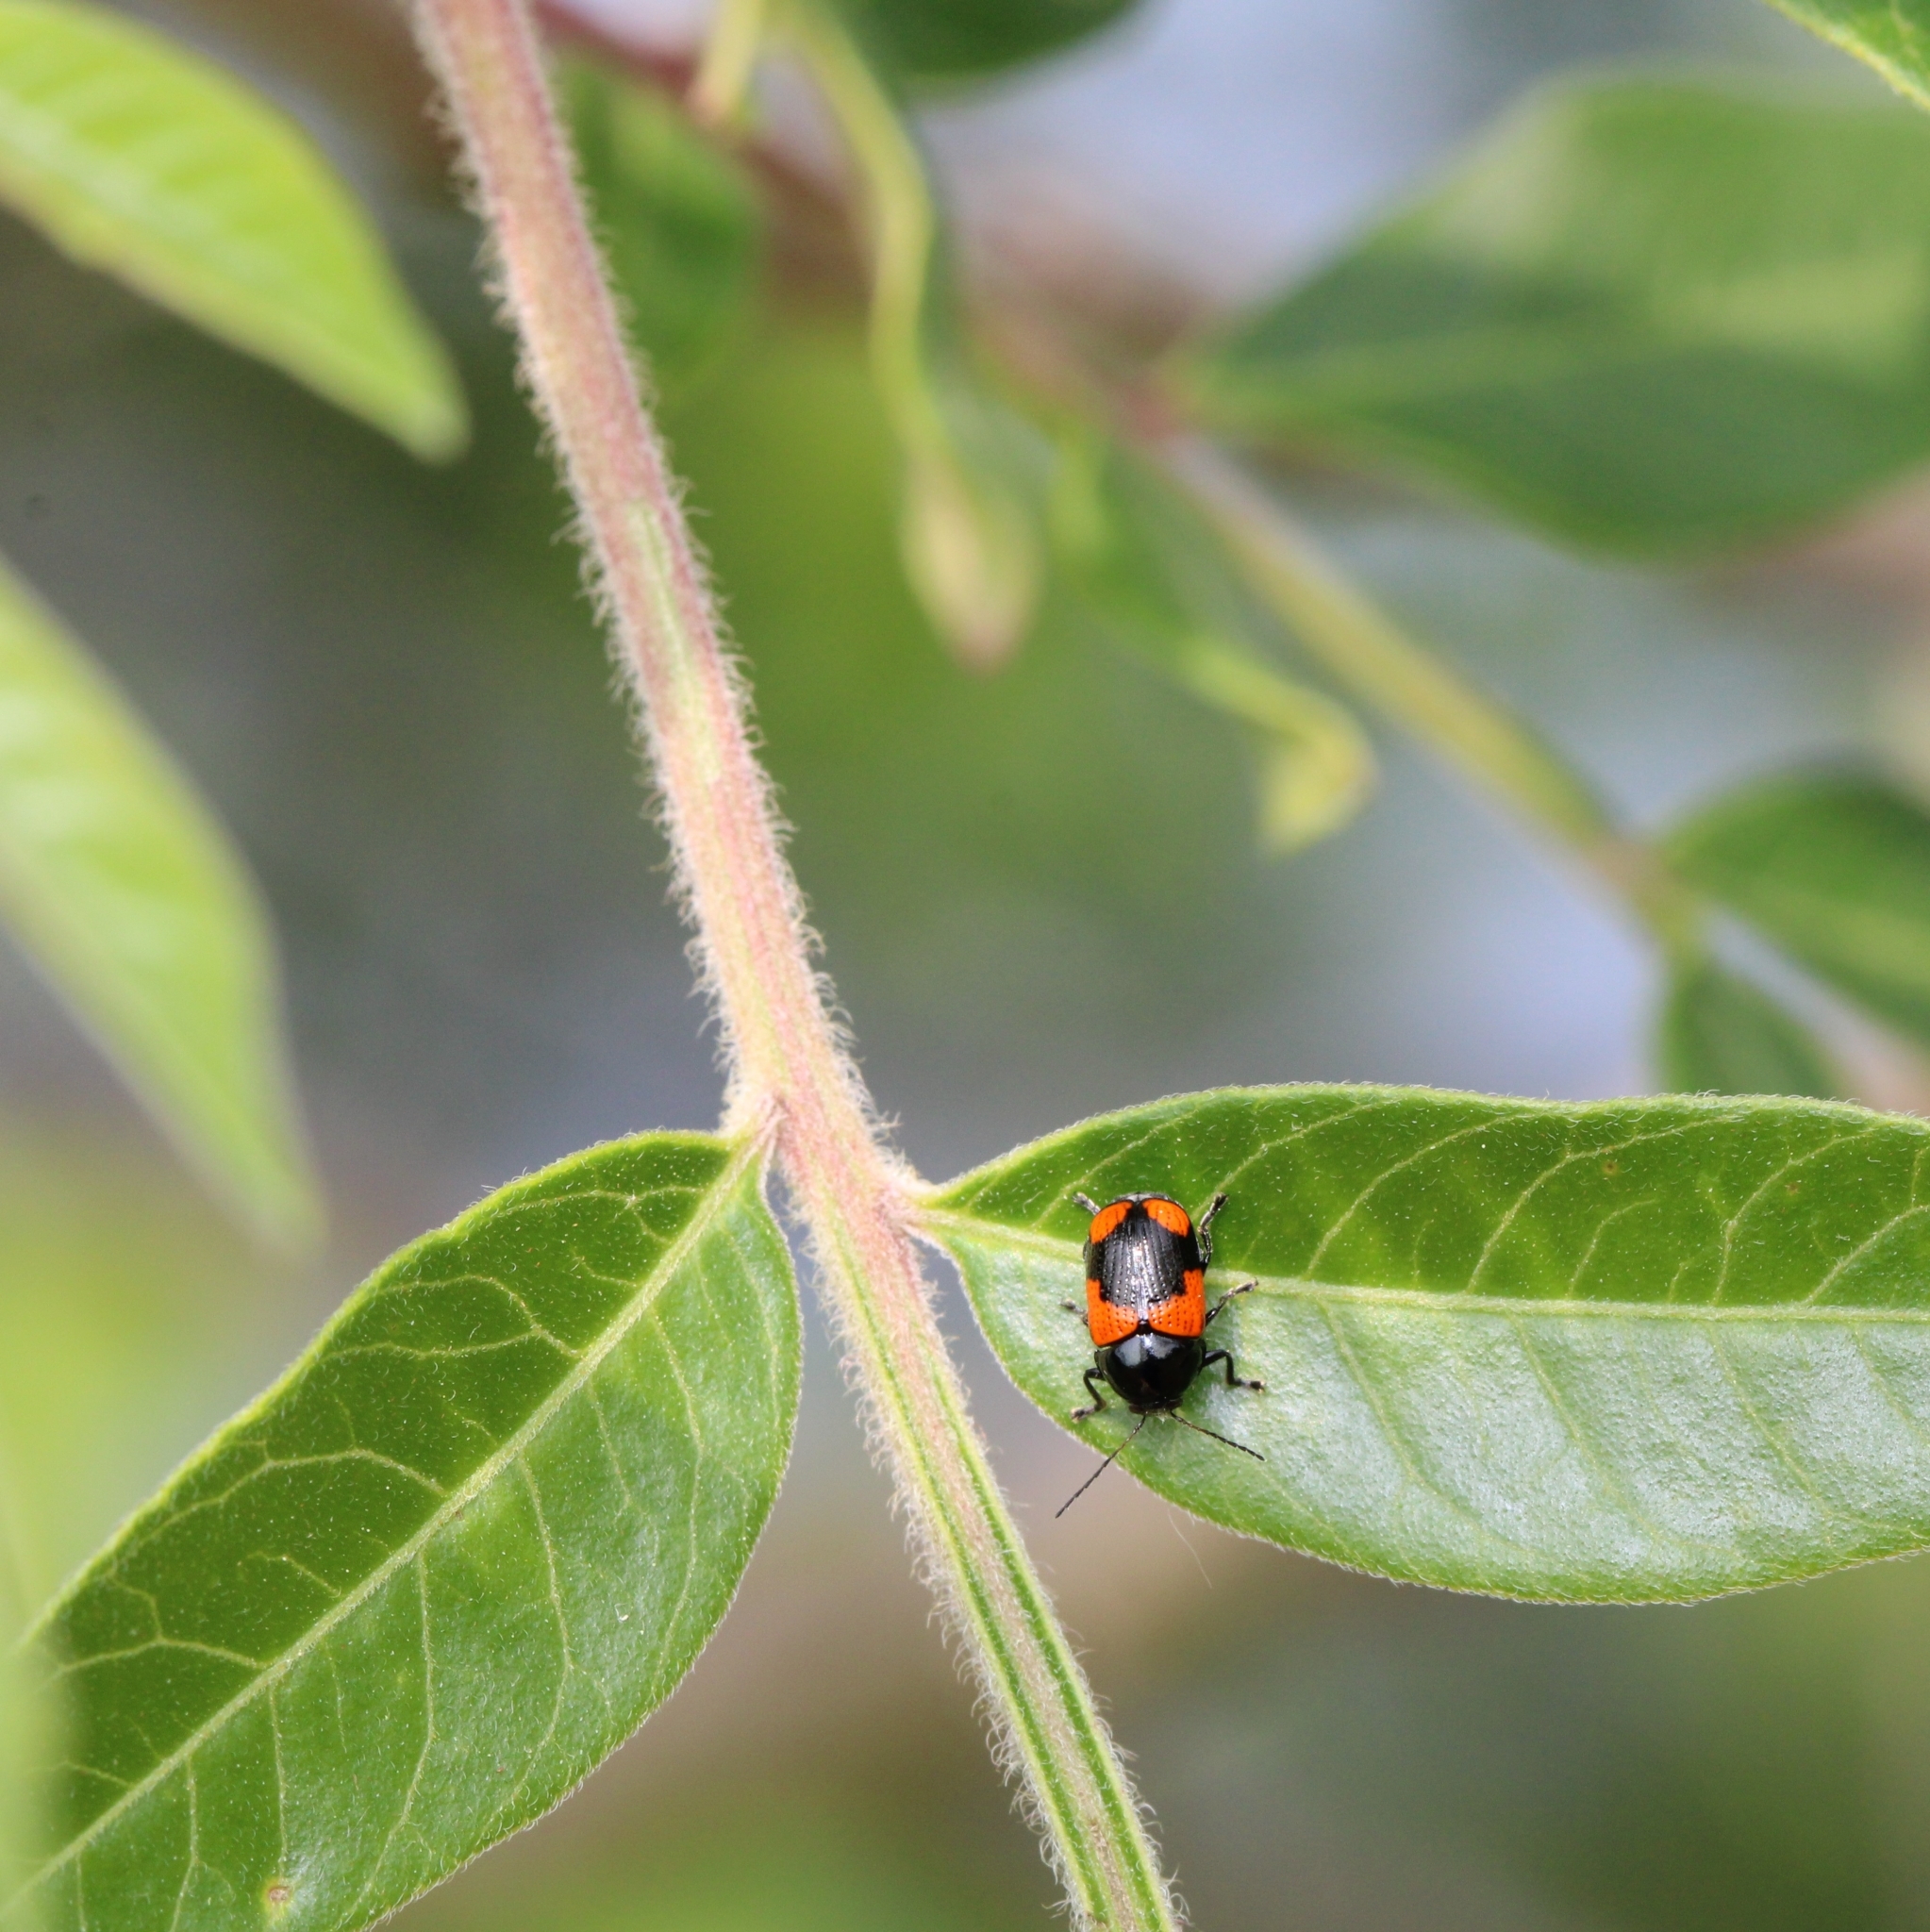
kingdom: Animalia
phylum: Arthropoda
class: Insecta
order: Coleoptera
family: Chrysomelidae
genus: Cryptocephalus
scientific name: Cryptocephalus notatus
